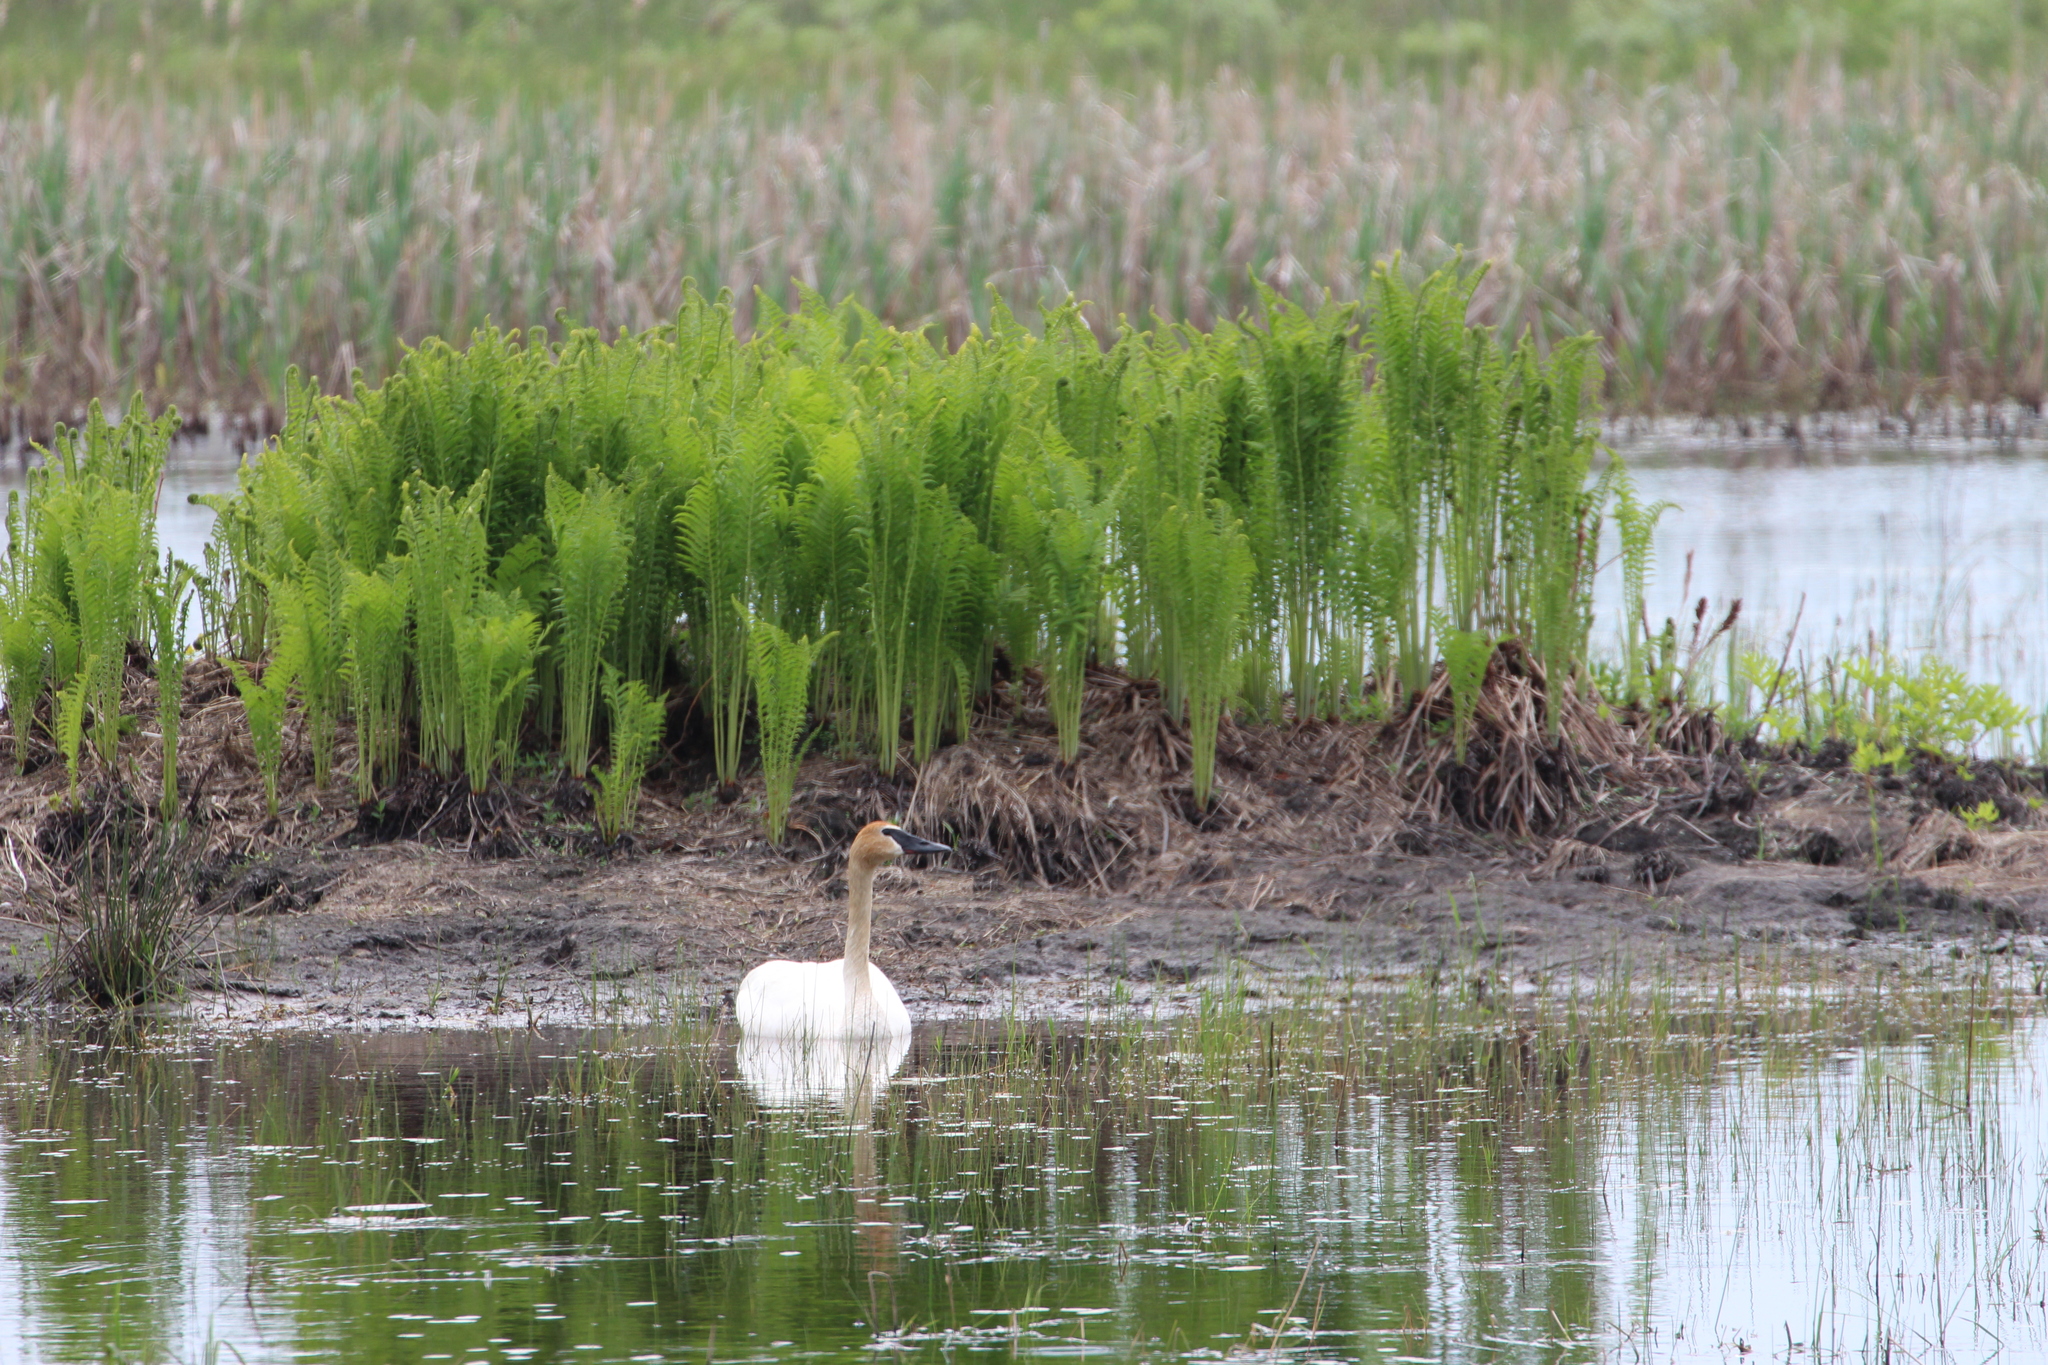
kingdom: Animalia
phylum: Chordata
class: Aves
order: Anseriformes
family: Anatidae
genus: Cygnus
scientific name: Cygnus buccinator
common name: Trumpeter swan
